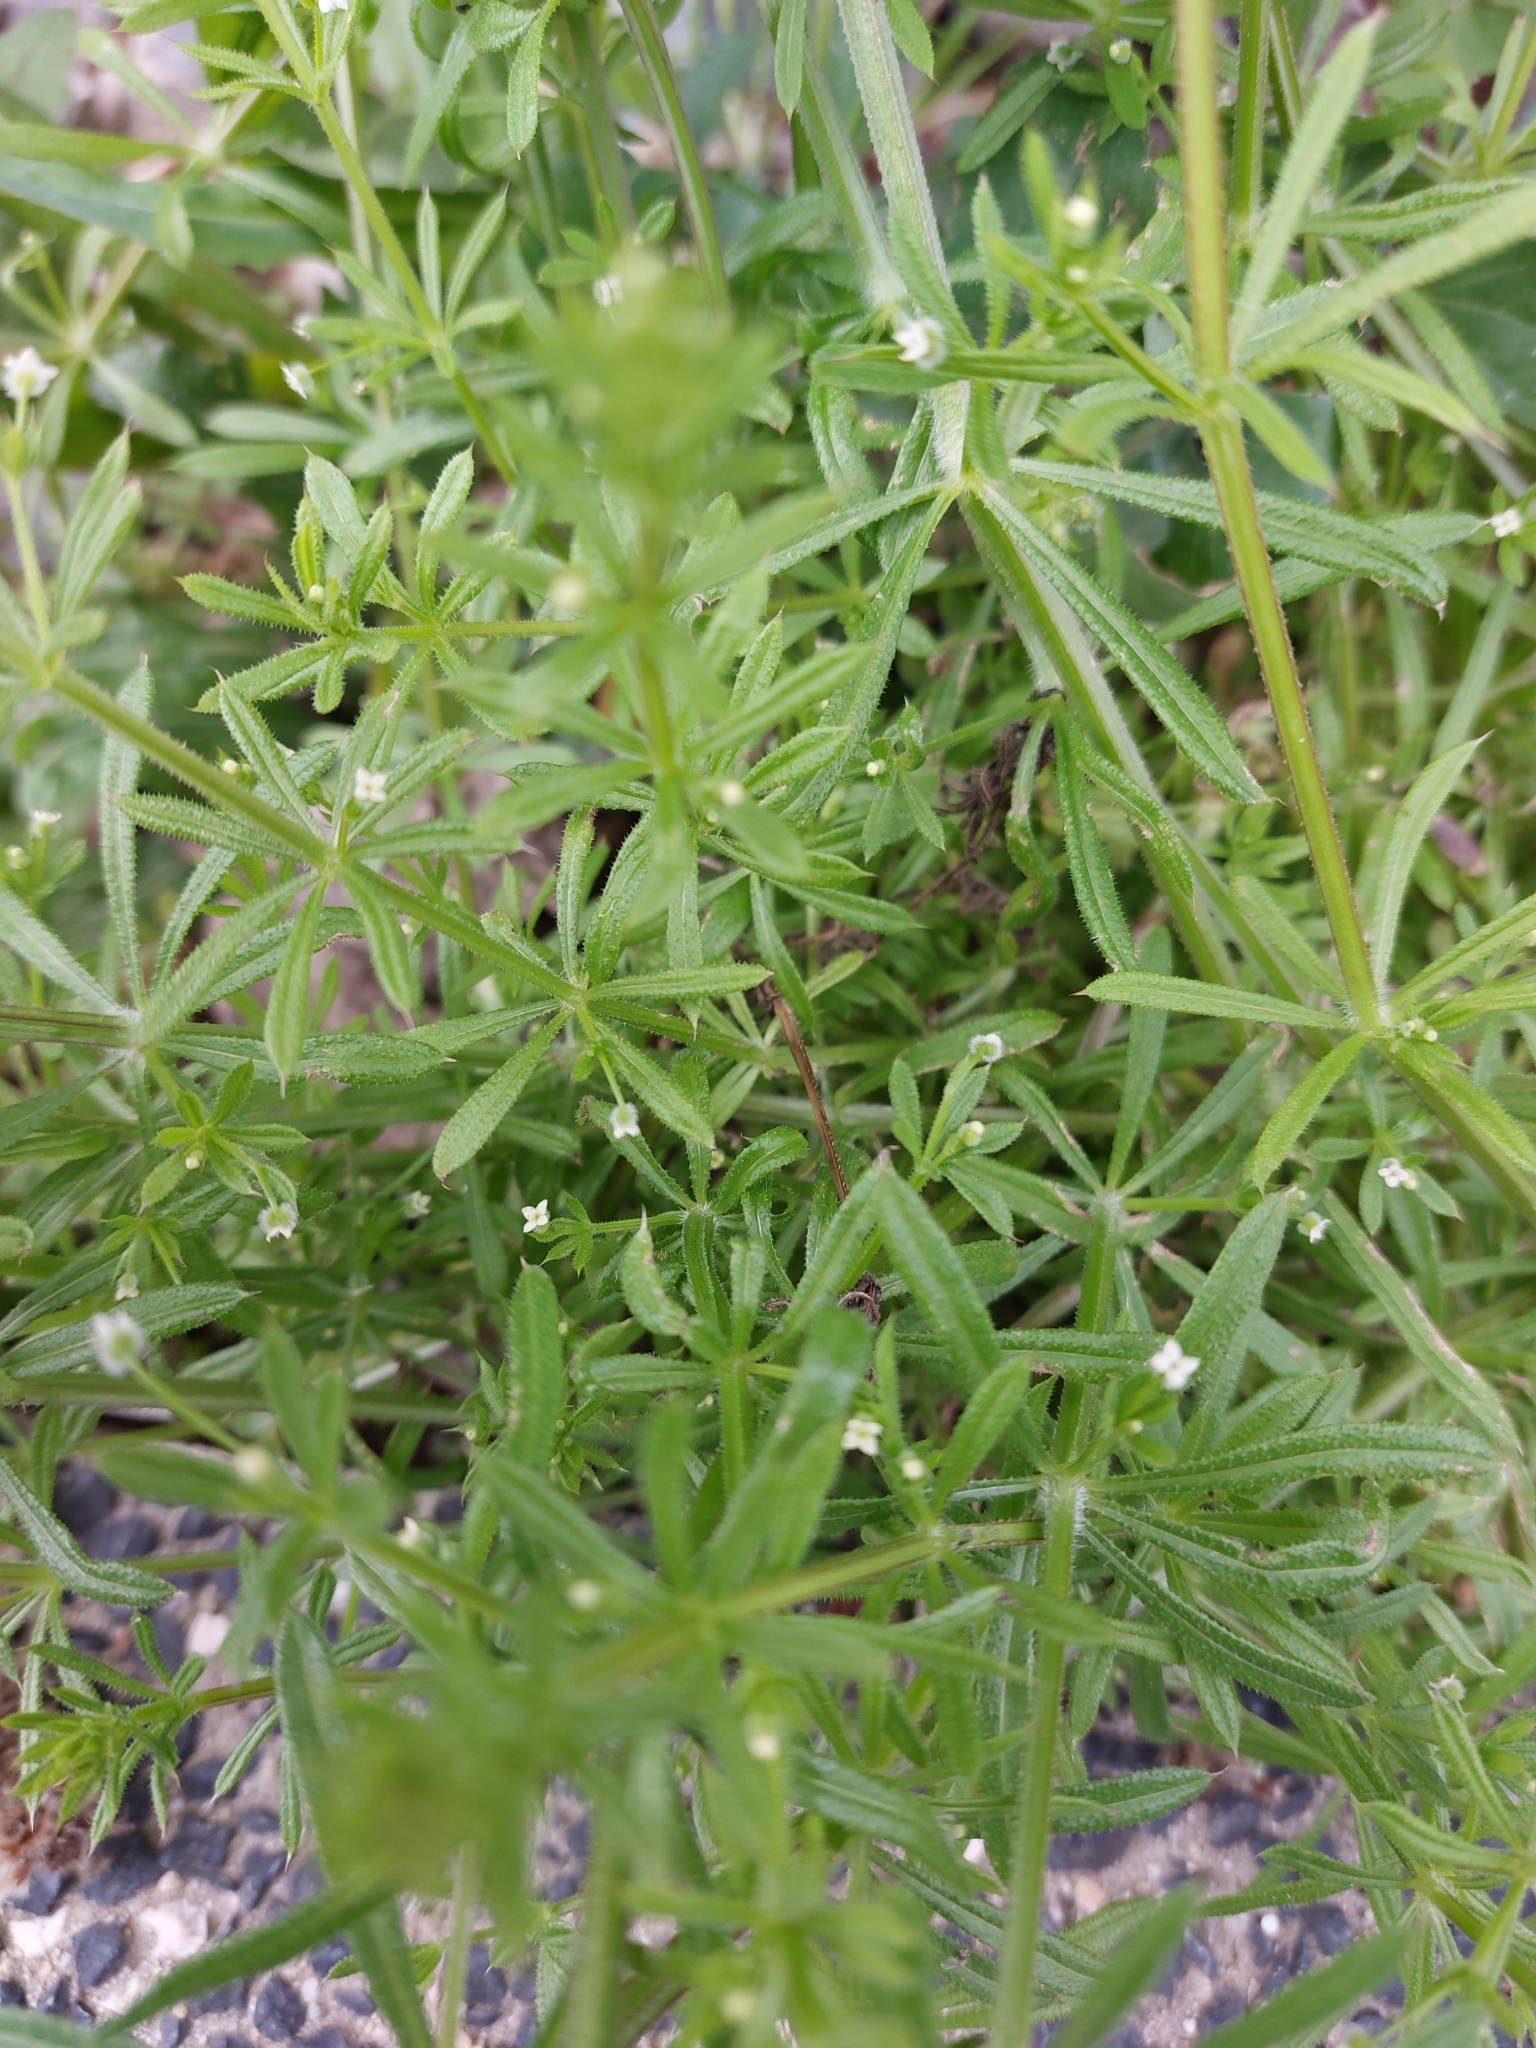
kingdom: Plantae
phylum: Tracheophyta
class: Magnoliopsida
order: Gentianales
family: Rubiaceae
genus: Galium
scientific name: Galium aparine
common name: Cleavers
